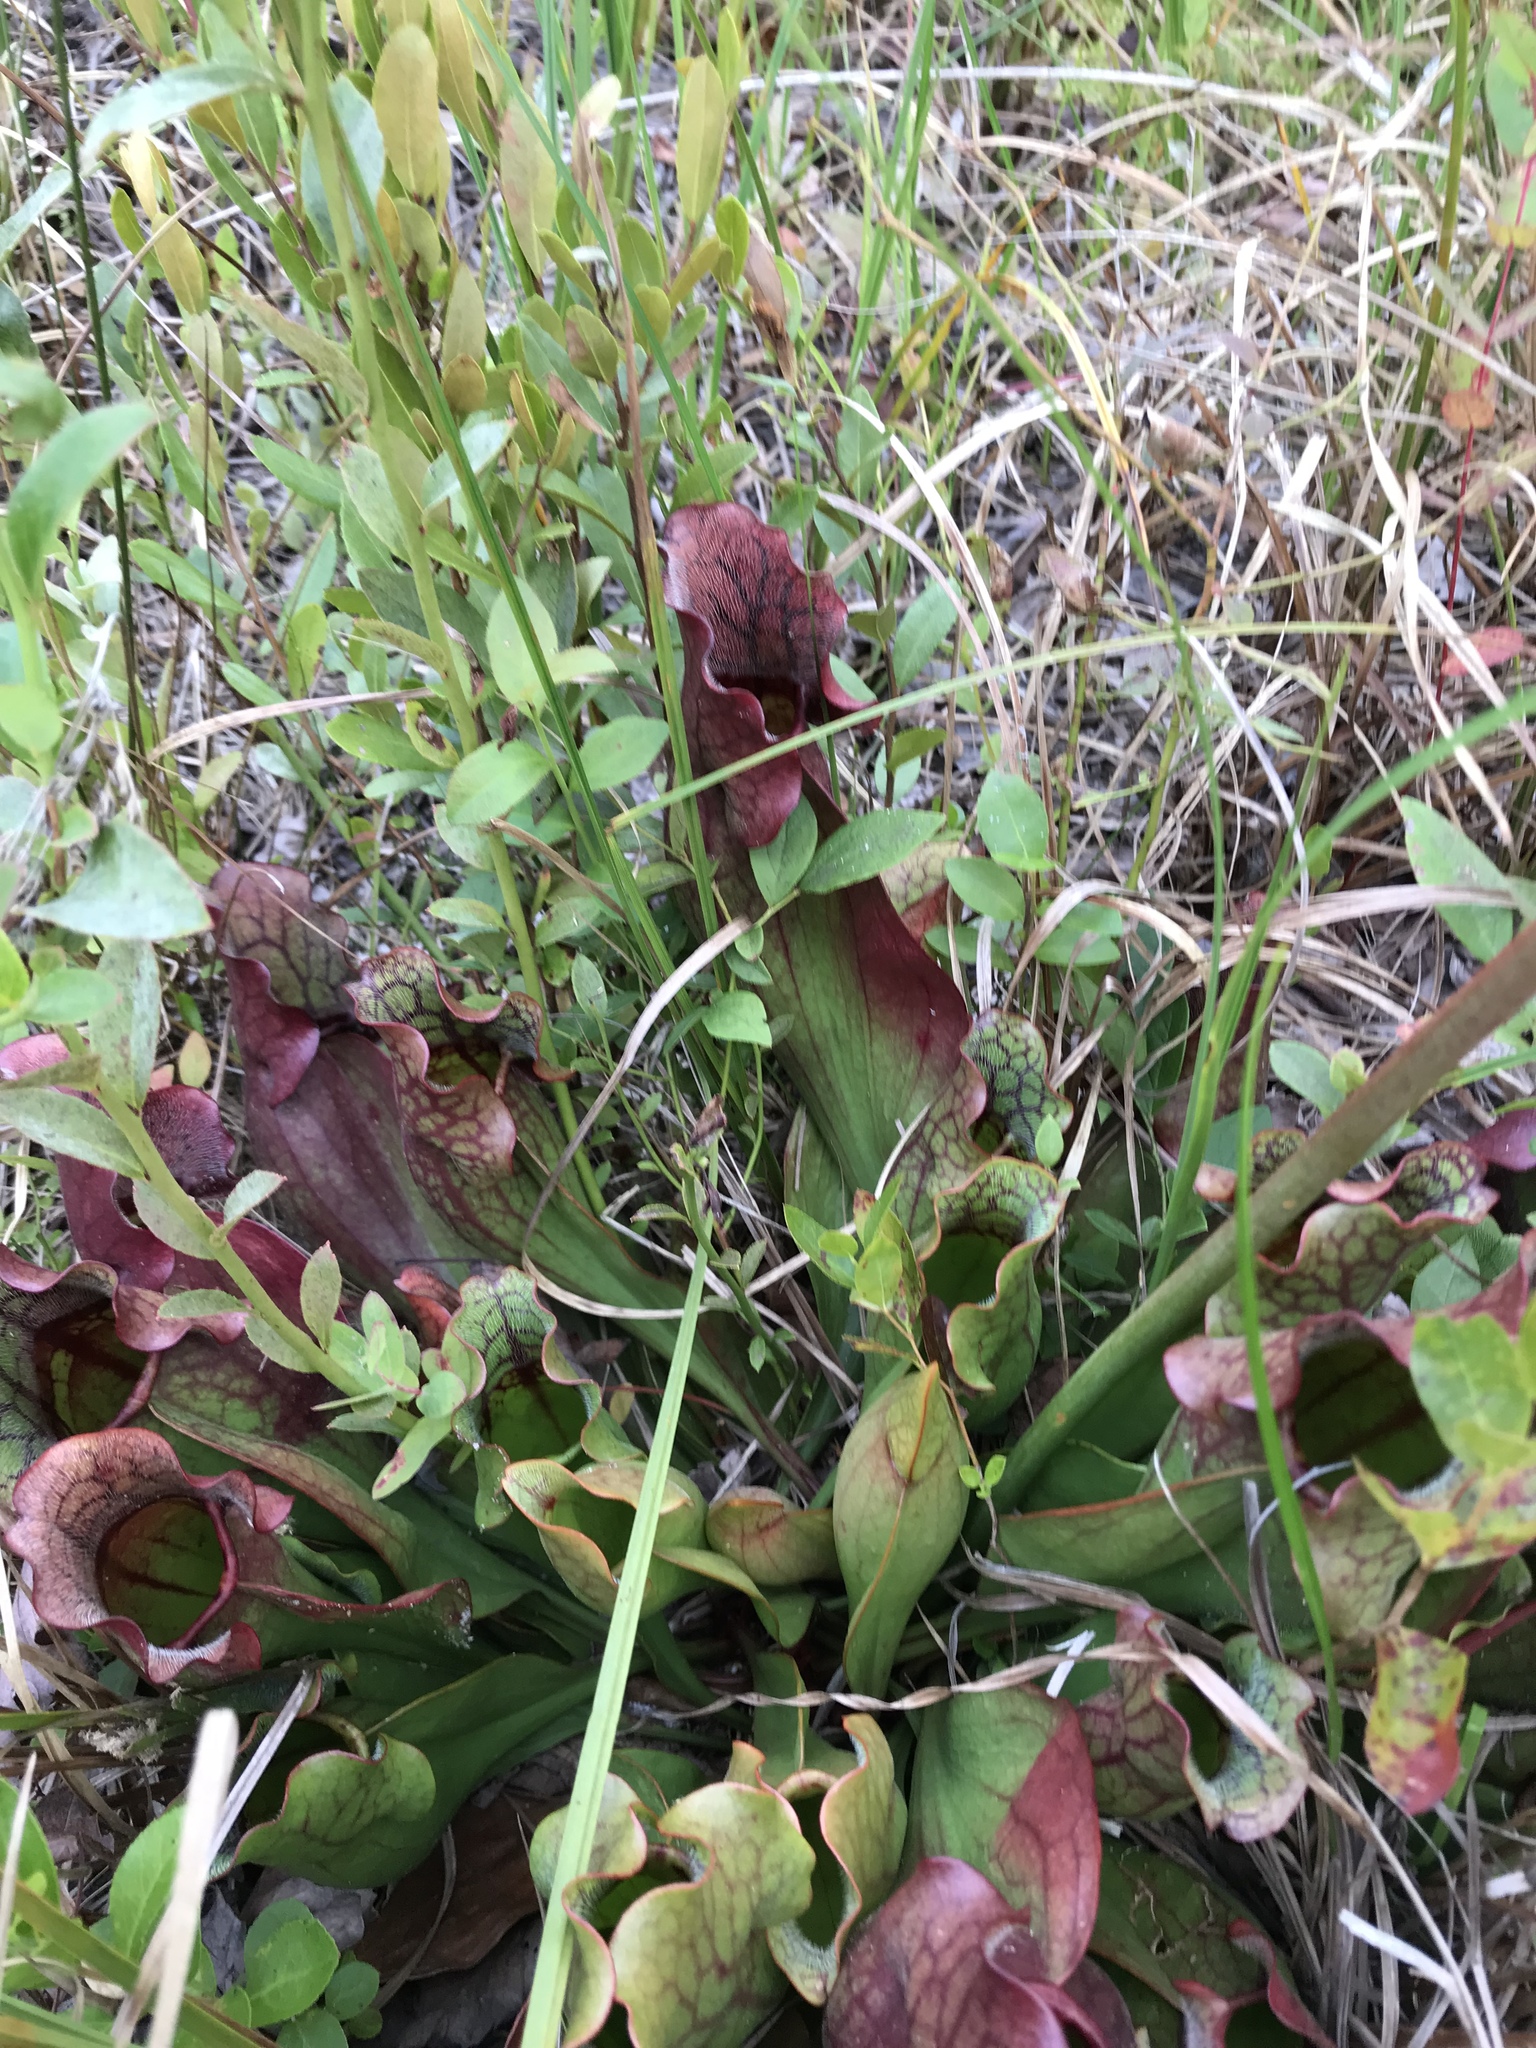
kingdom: Plantae
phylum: Tracheophyta
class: Magnoliopsida
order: Ericales
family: Sarraceniaceae
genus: Sarracenia
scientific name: Sarracenia purpurea
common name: Pitcherplant
